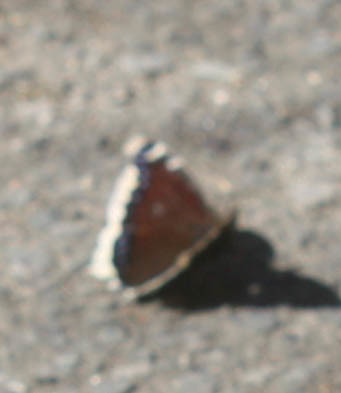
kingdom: Animalia
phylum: Arthropoda
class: Insecta
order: Lepidoptera
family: Nymphalidae
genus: Nymphalis
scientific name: Nymphalis antiopa
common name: Camberwell beauty
